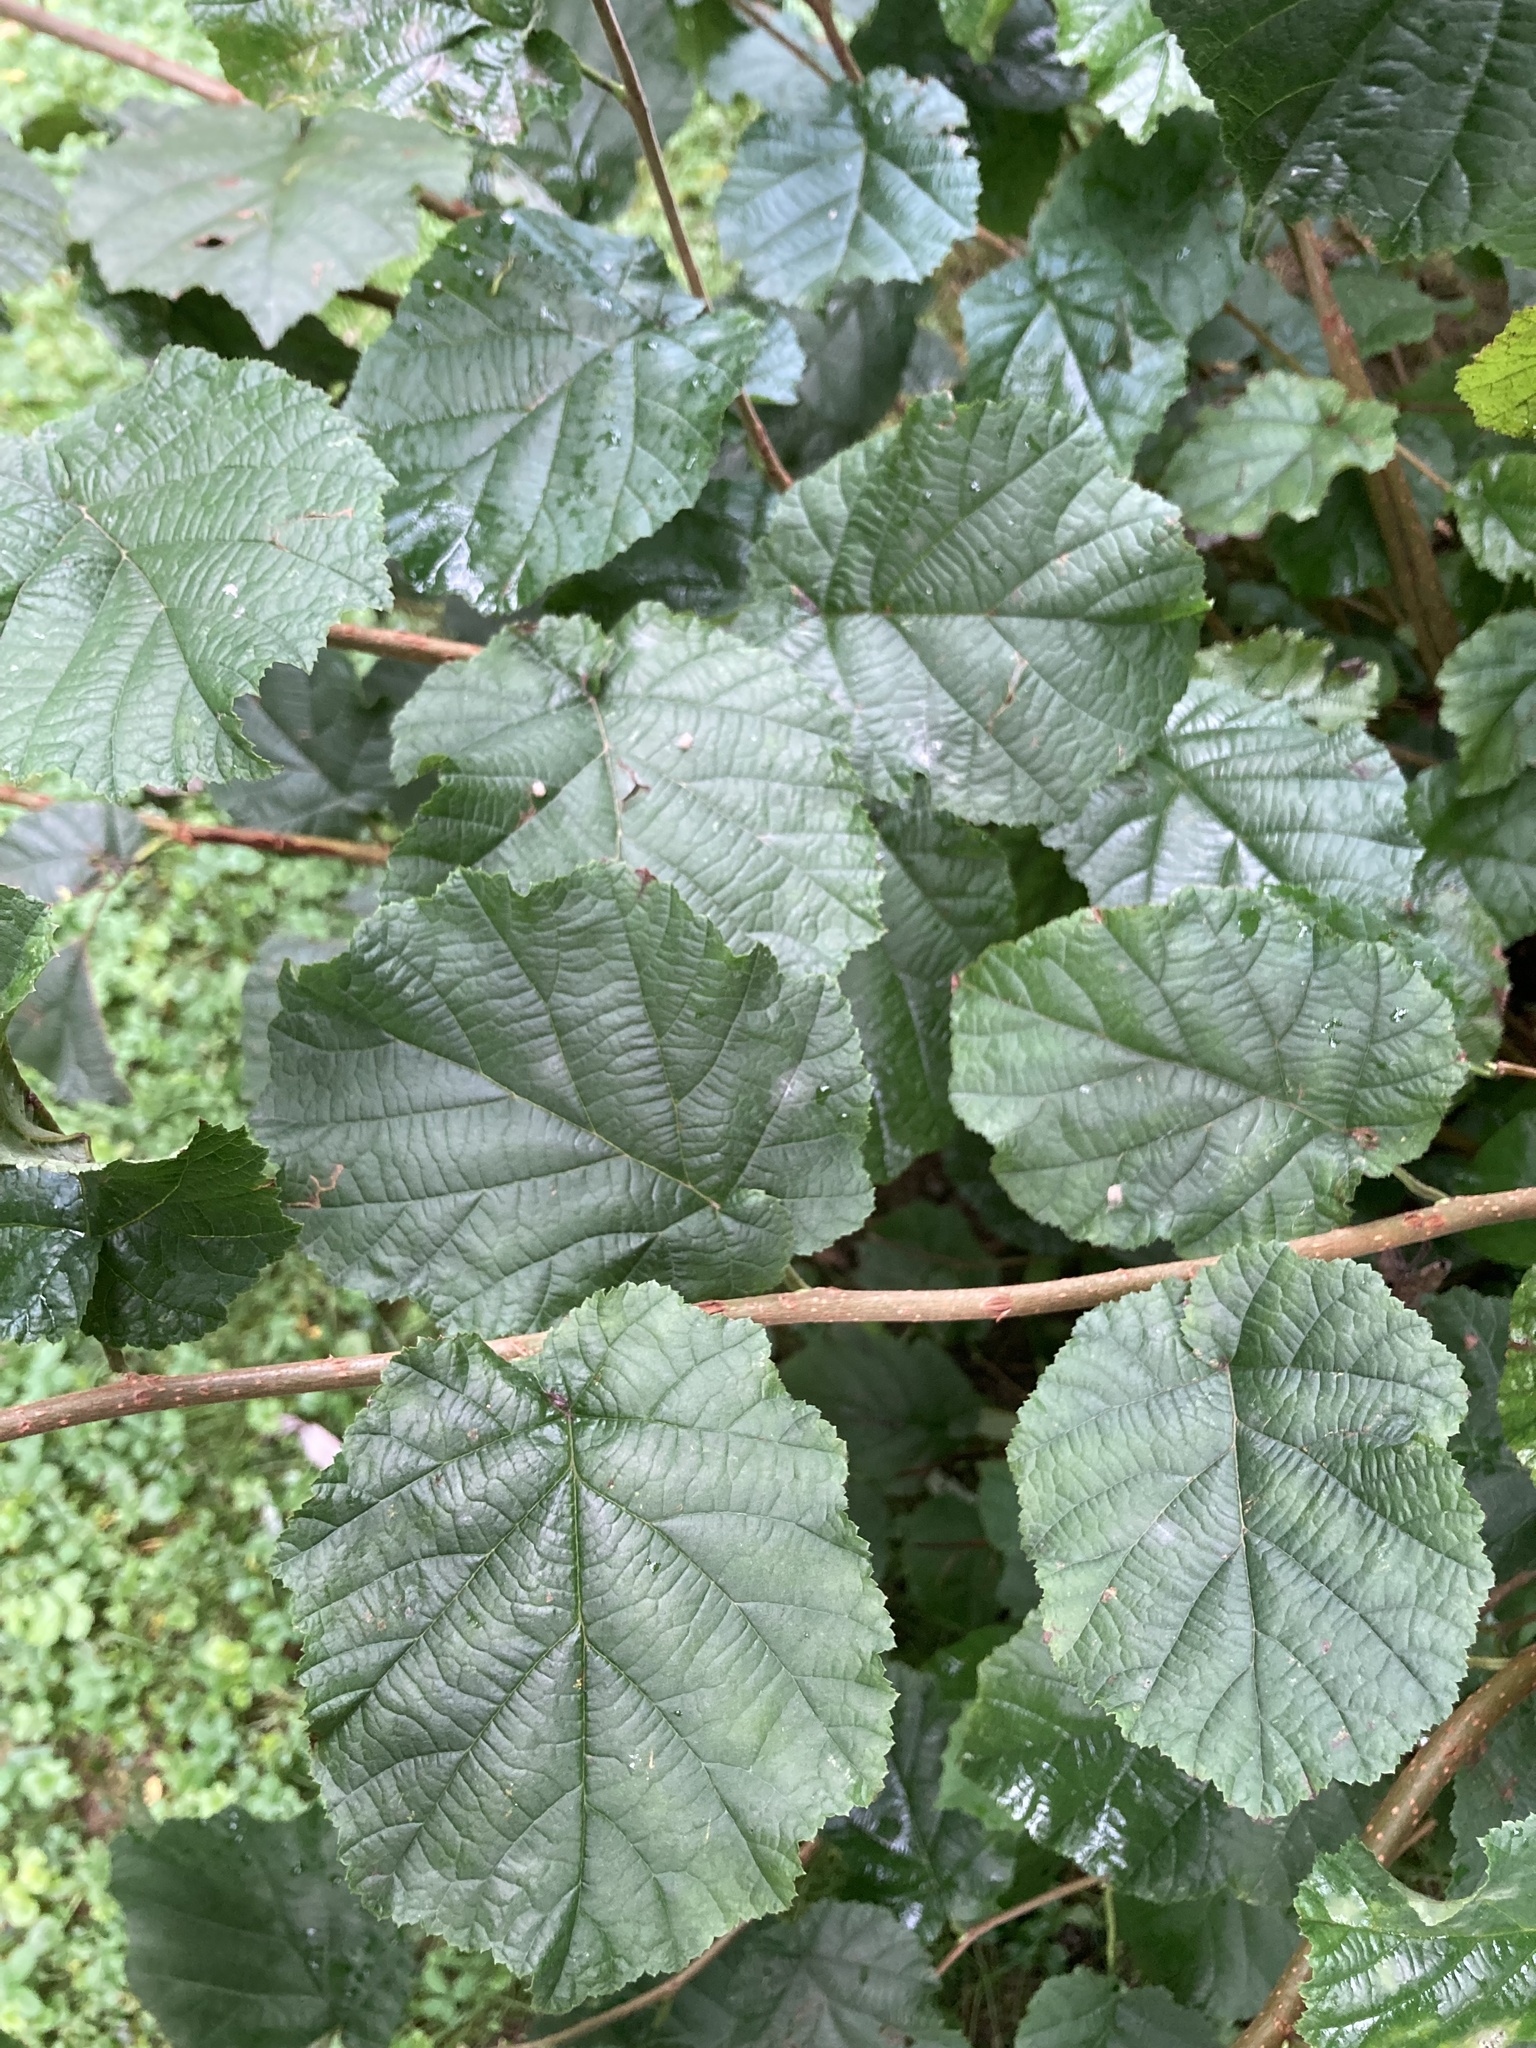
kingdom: Plantae
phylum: Tracheophyta
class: Magnoliopsida
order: Fagales
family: Betulaceae
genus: Corylus
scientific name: Corylus avellana
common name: European hazel
